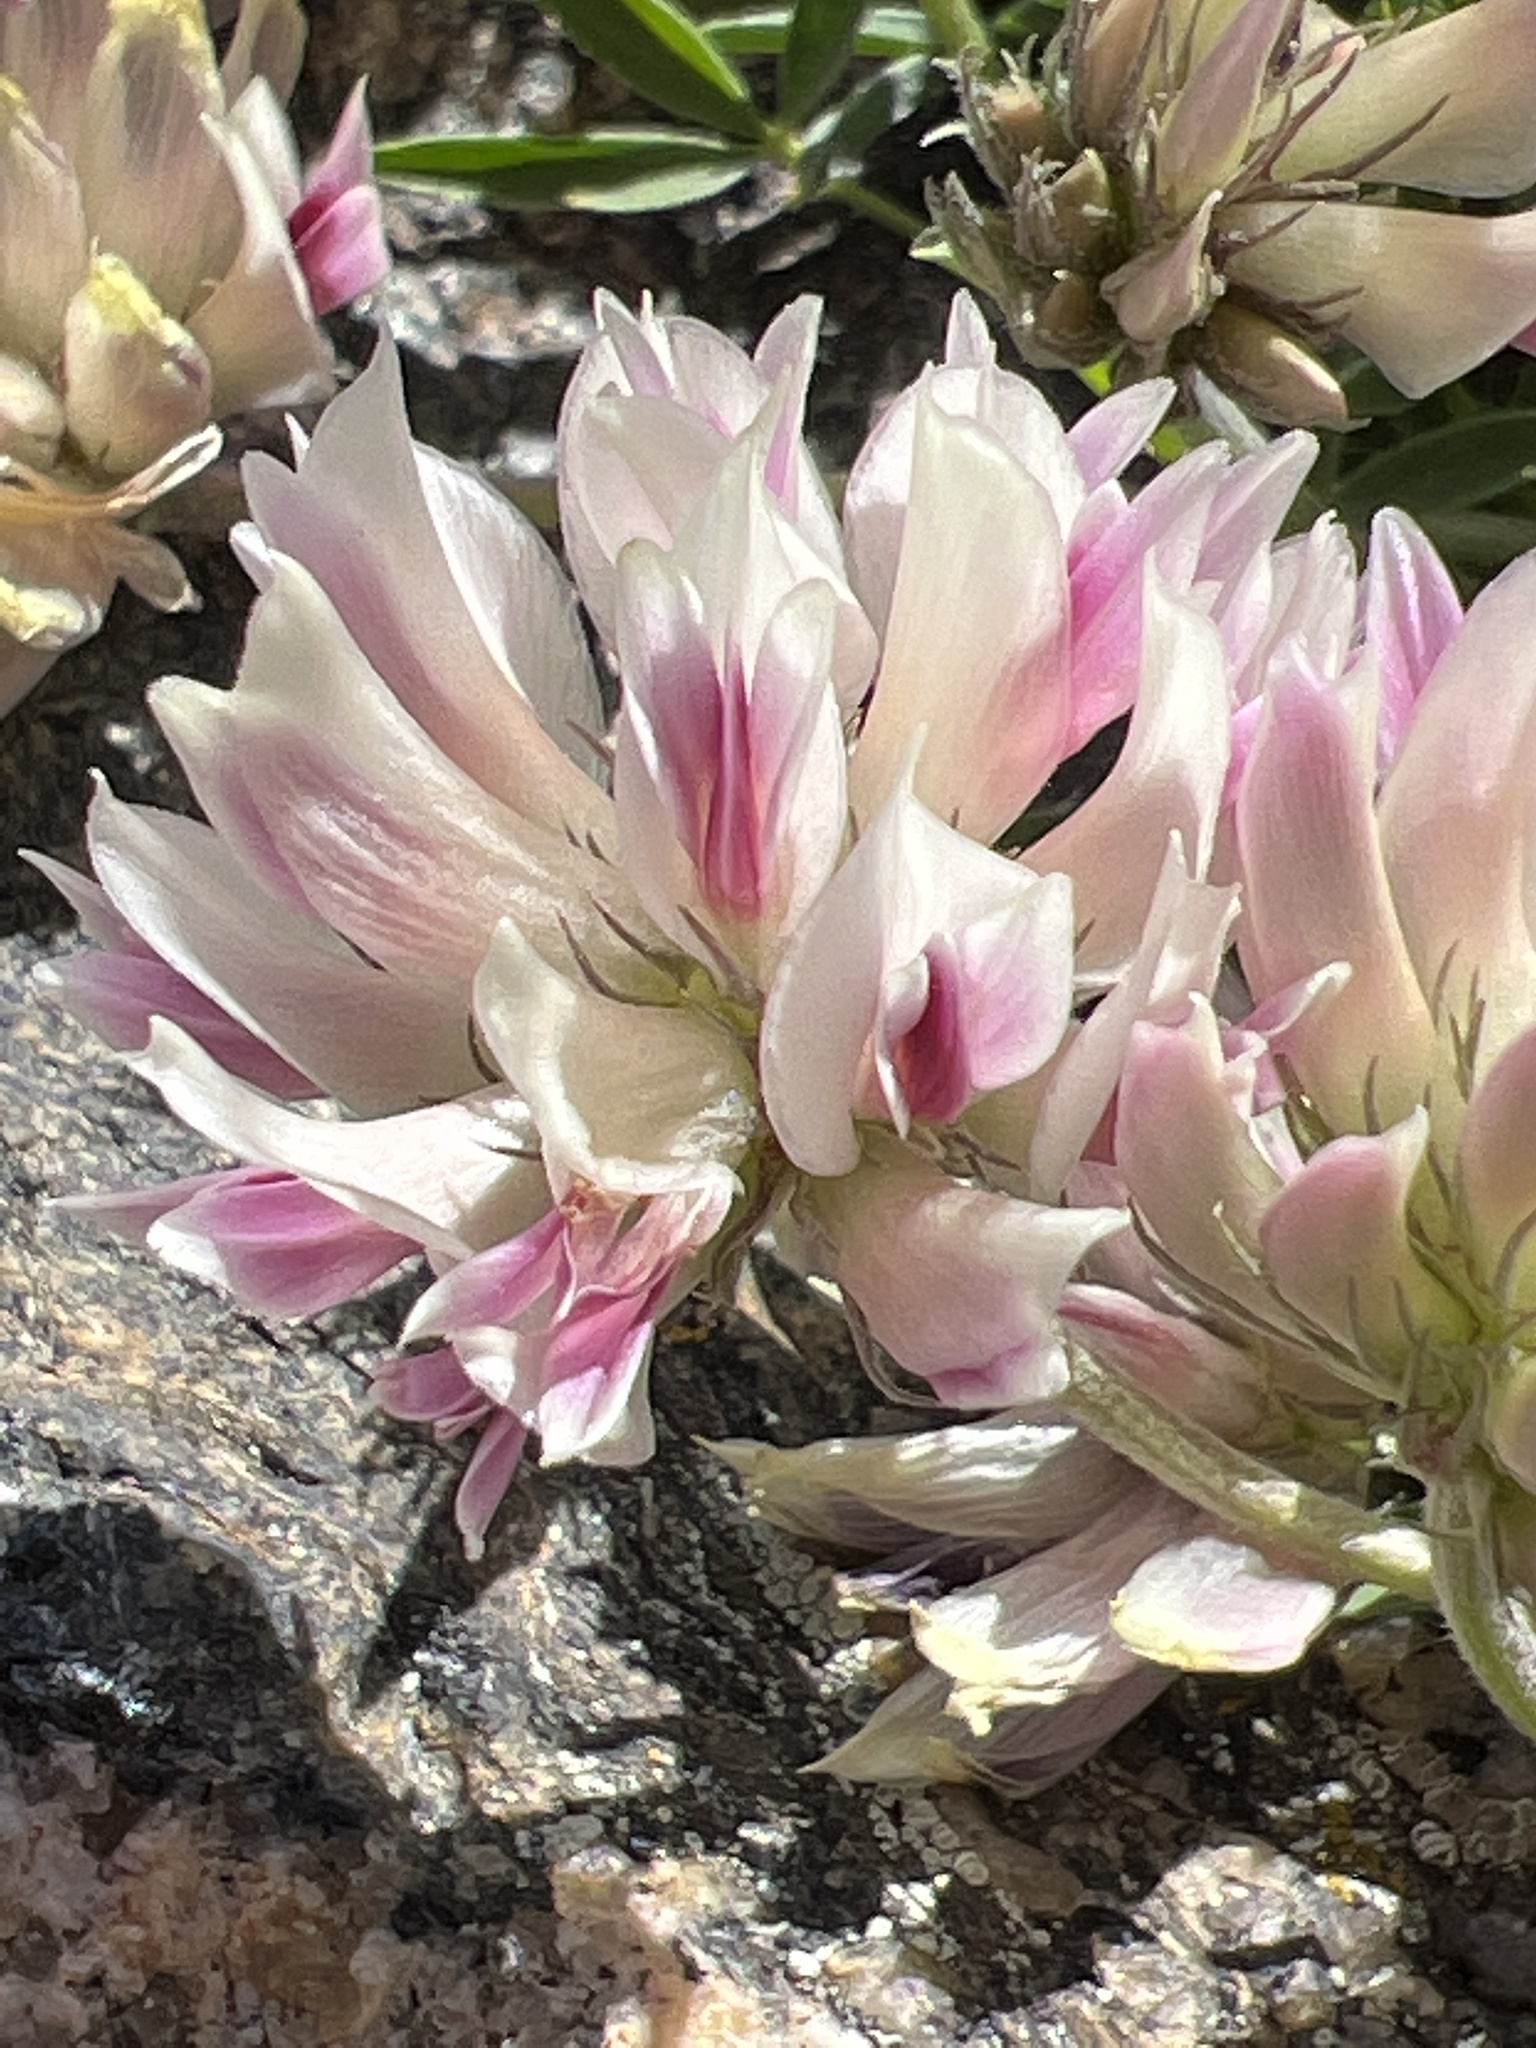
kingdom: Plantae
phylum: Tracheophyta
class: Magnoliopsida
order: Fabales
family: Fabaceae
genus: Trifolium
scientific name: Trifolium dasyphyllum
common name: Whip-root clover
